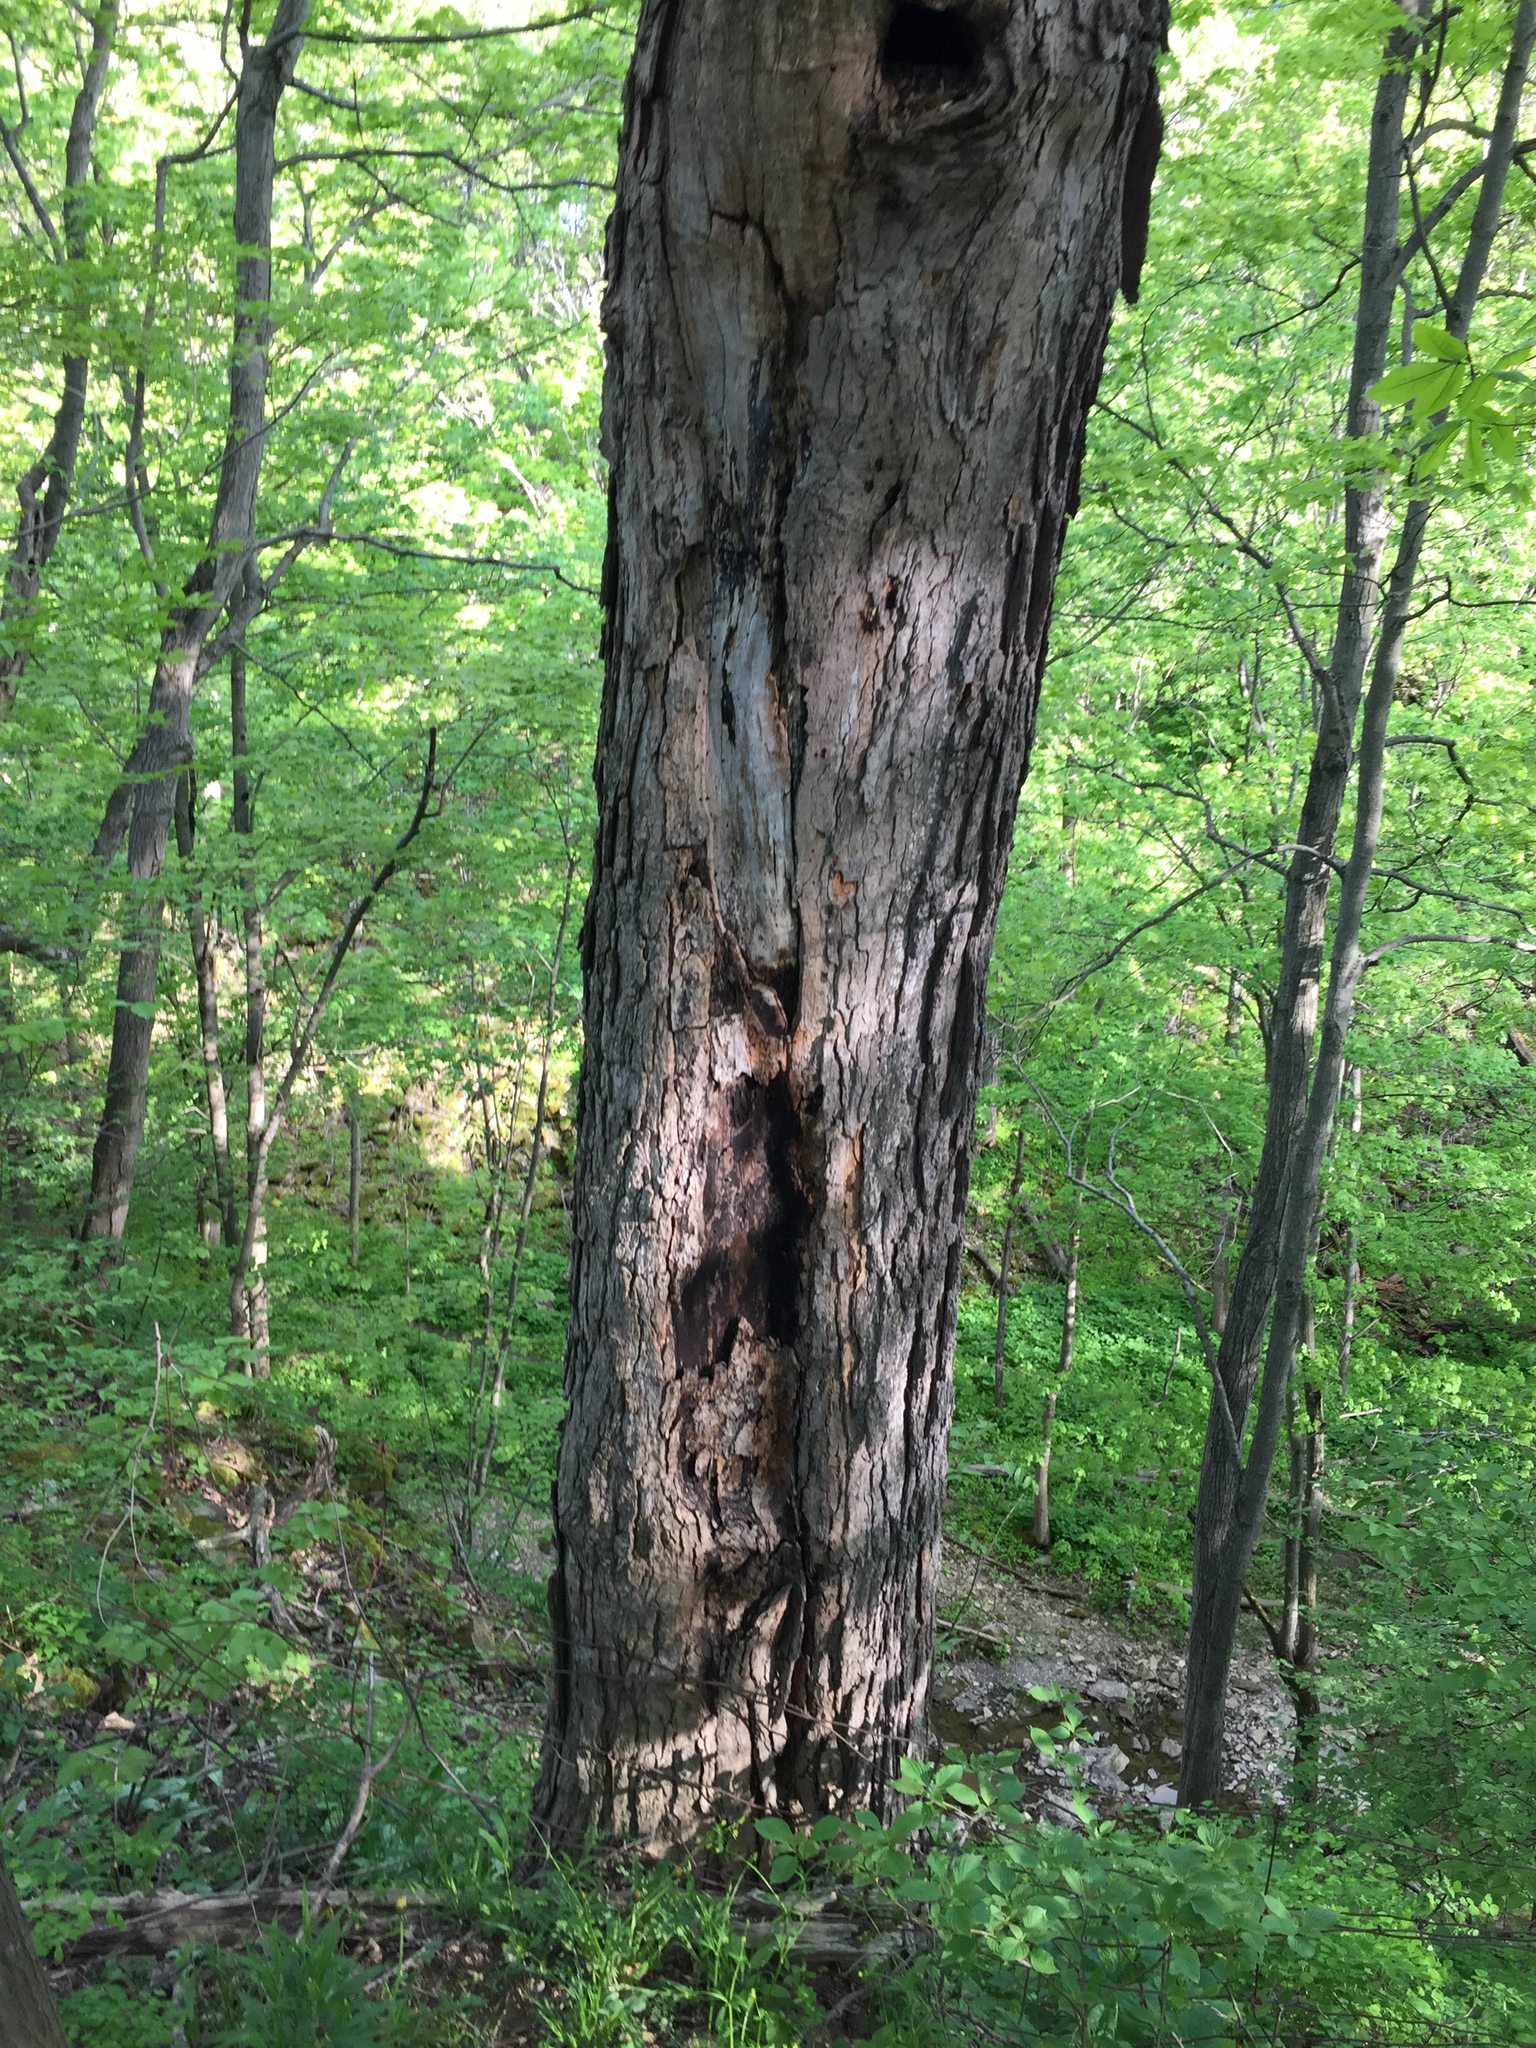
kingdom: Plantae
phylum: Tracheophyta
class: Magnoliopsida
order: Sapindales
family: Sapindaceae
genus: Acer
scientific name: Acer saccharum
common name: Sugar maple
